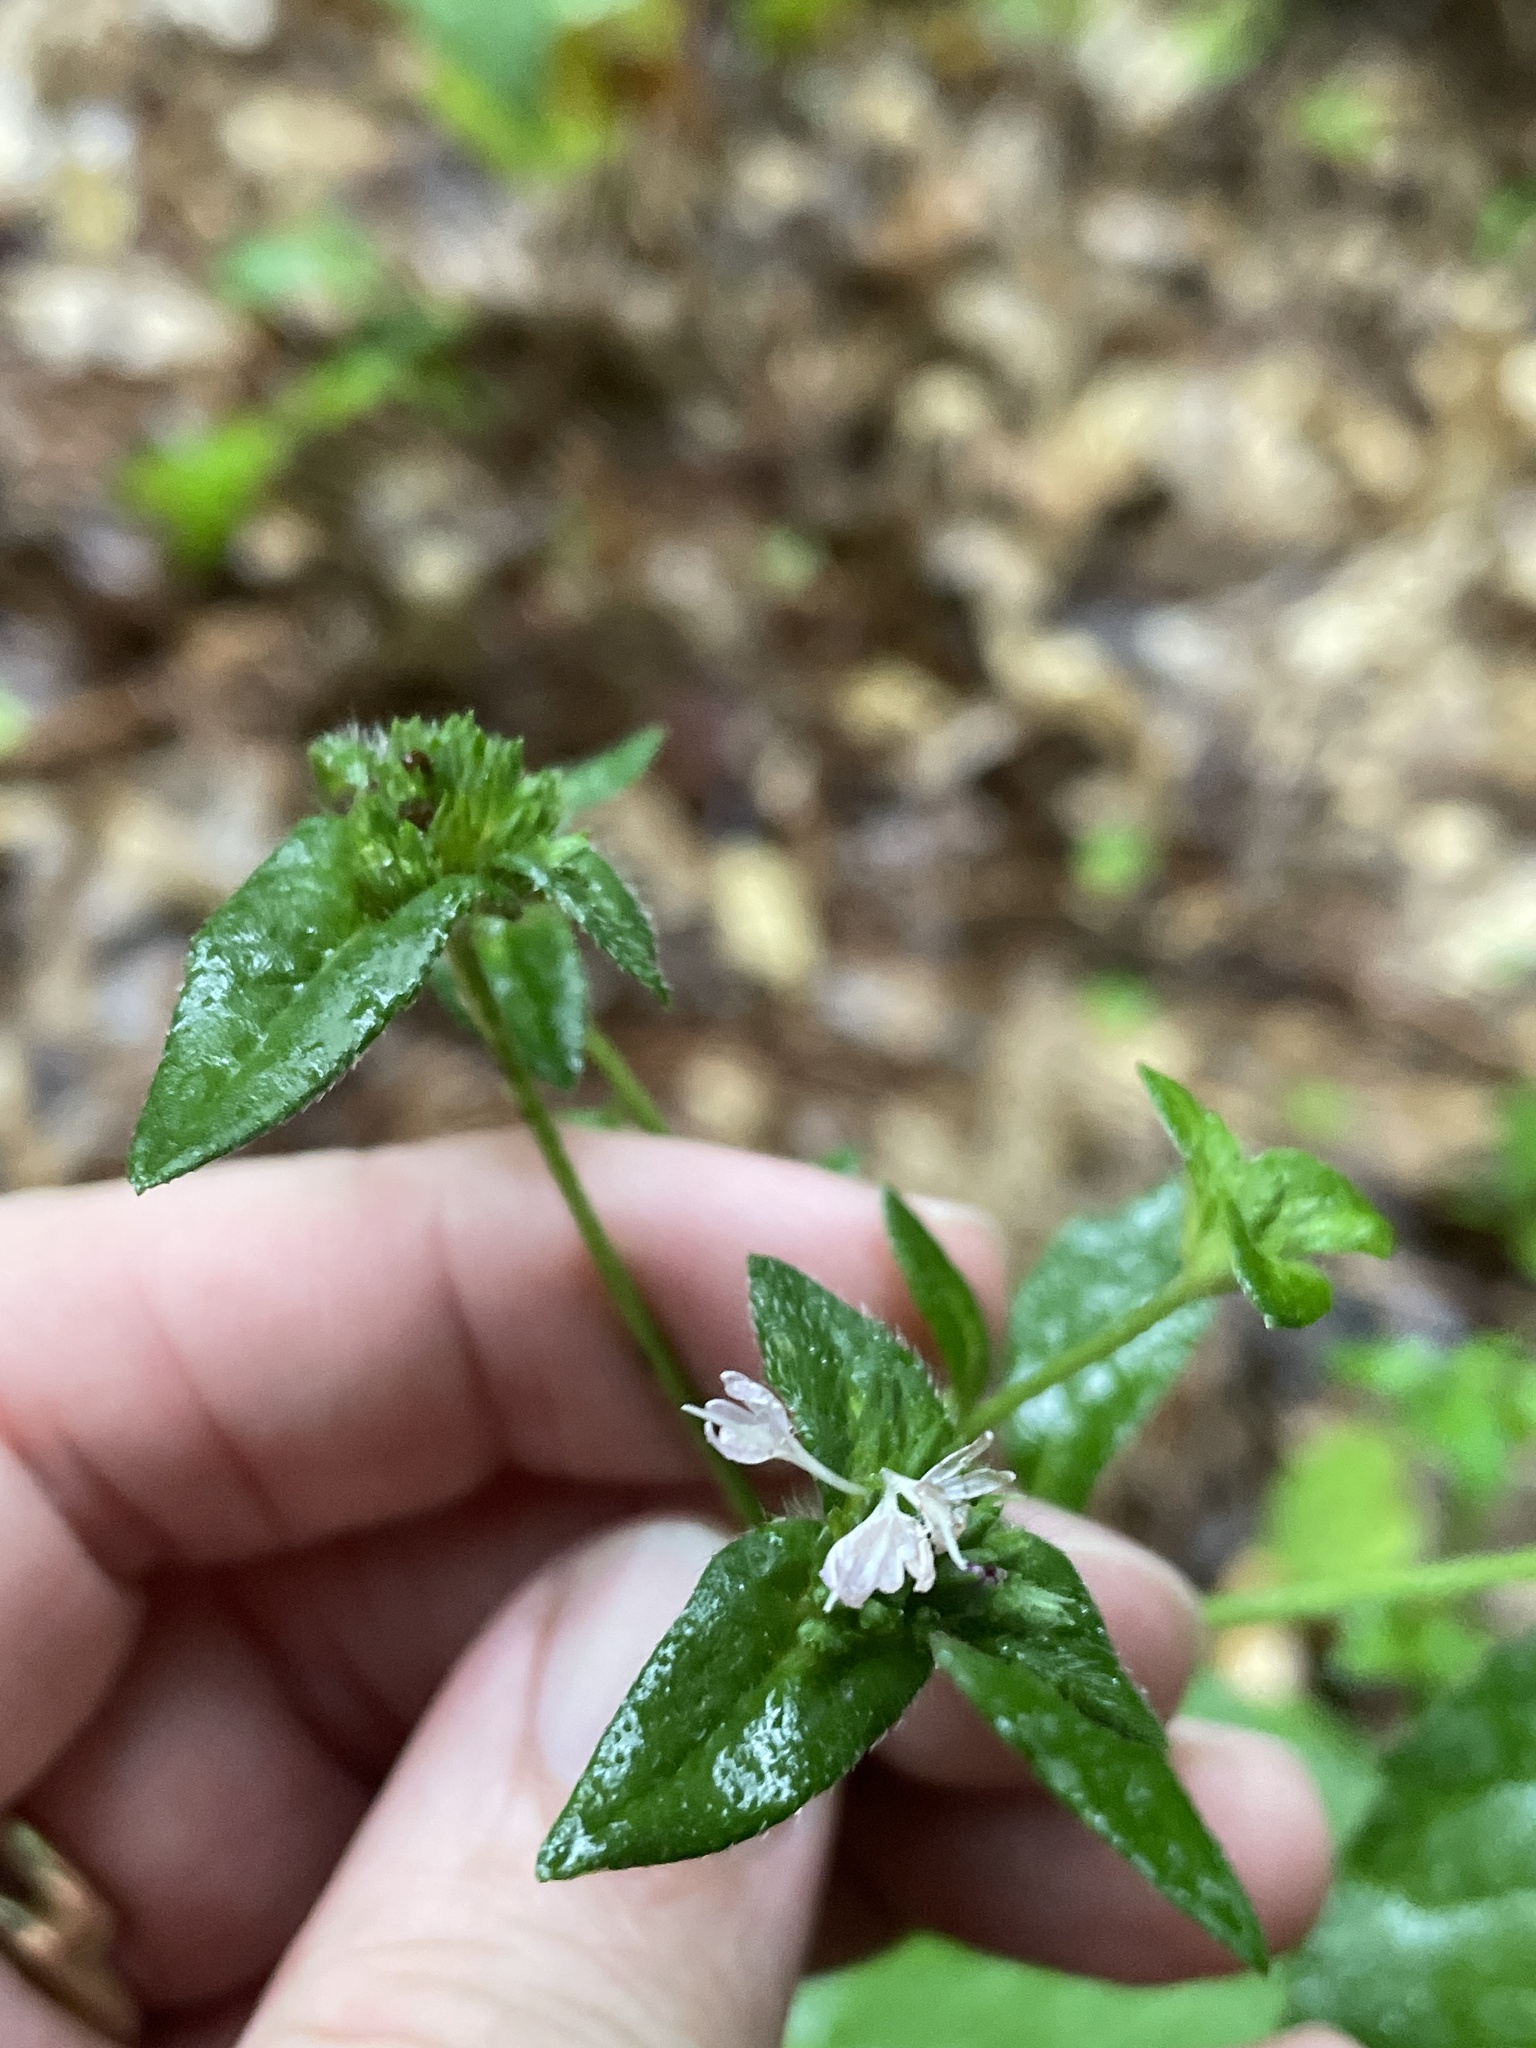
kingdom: Plantae
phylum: Tracheophyta
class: Magnoliopsida
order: Asterales
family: Asteraceae
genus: Elephantopus
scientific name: Elephantopus carolinianus
